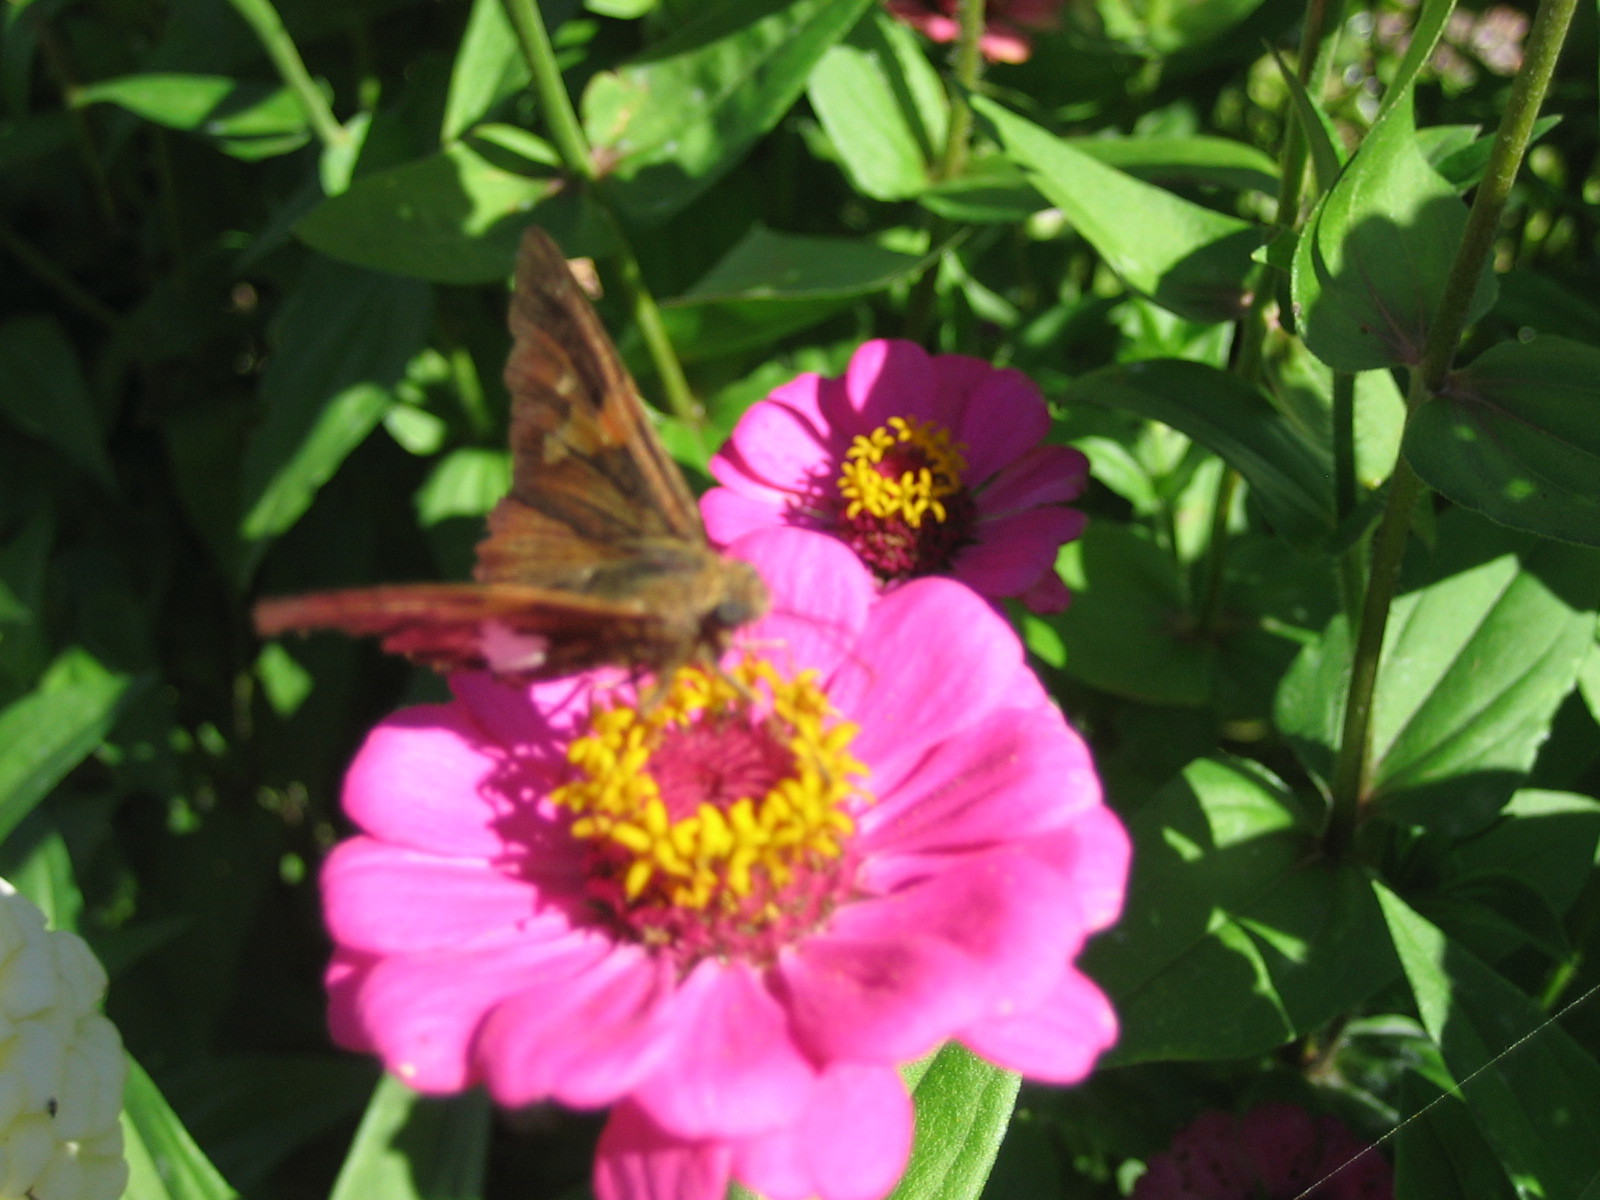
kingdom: Animalia
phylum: Arthropoda
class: Insecta
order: Lepidoptera
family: Hesperiidae
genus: Epargyreus
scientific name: Epargyreus clarus
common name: Silver-spotted skipper
